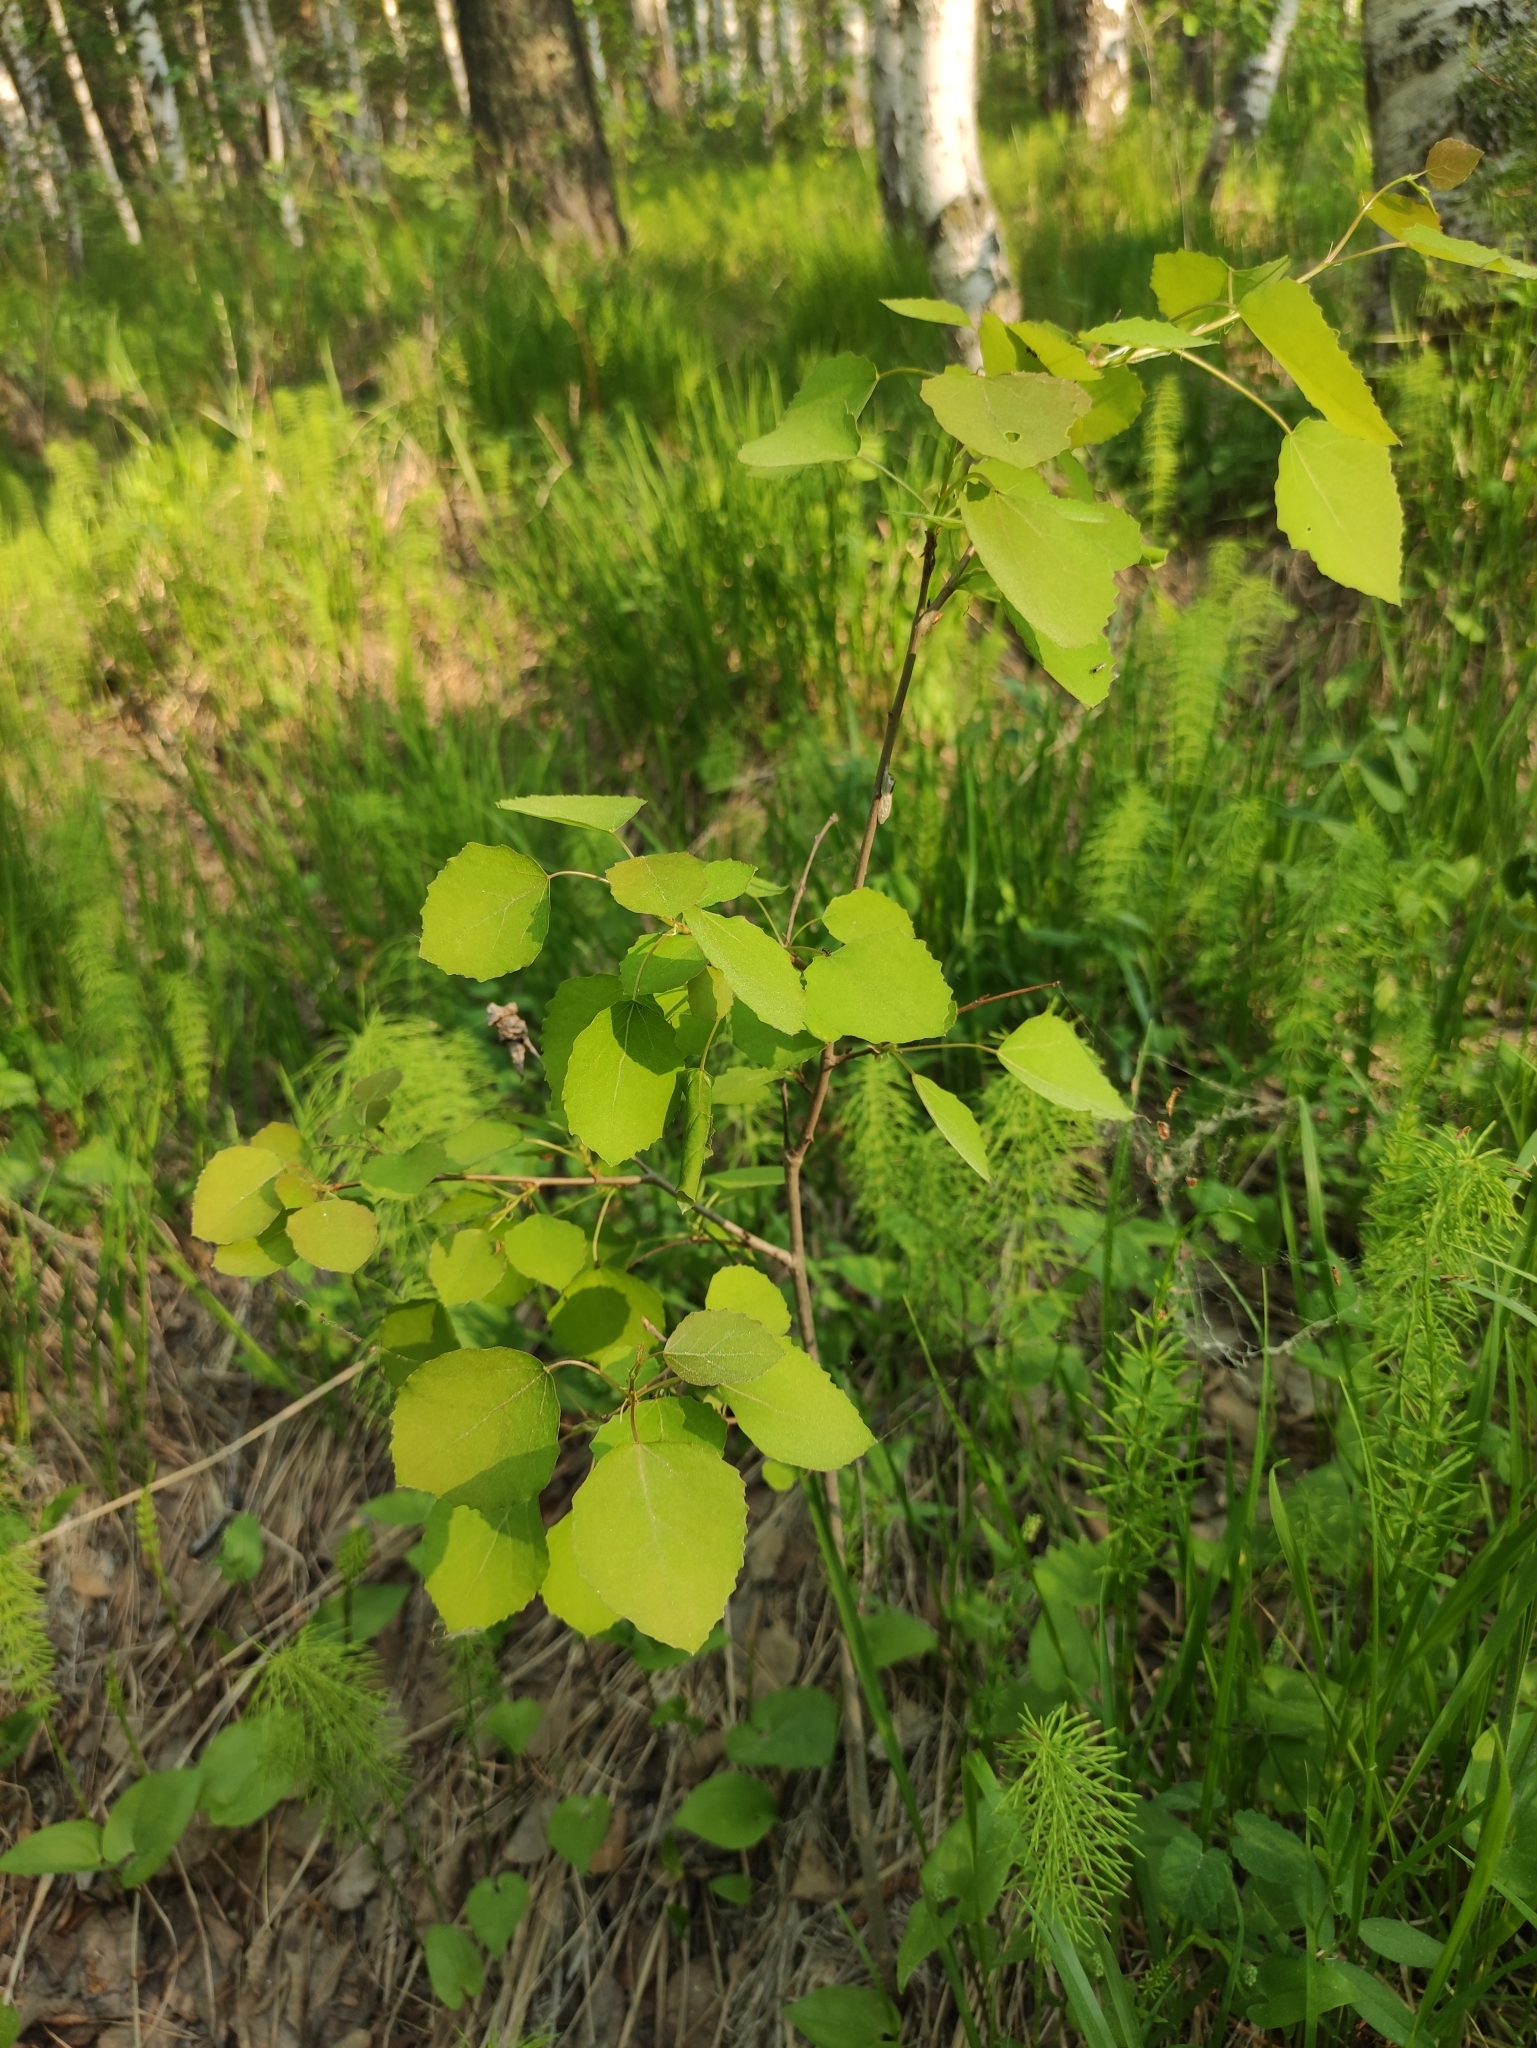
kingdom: Plantae
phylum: Tracheophyta
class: Magnoliopsida
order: Malpighiales
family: Salicaceae
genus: Populus
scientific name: Populus tremula
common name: European aspen
